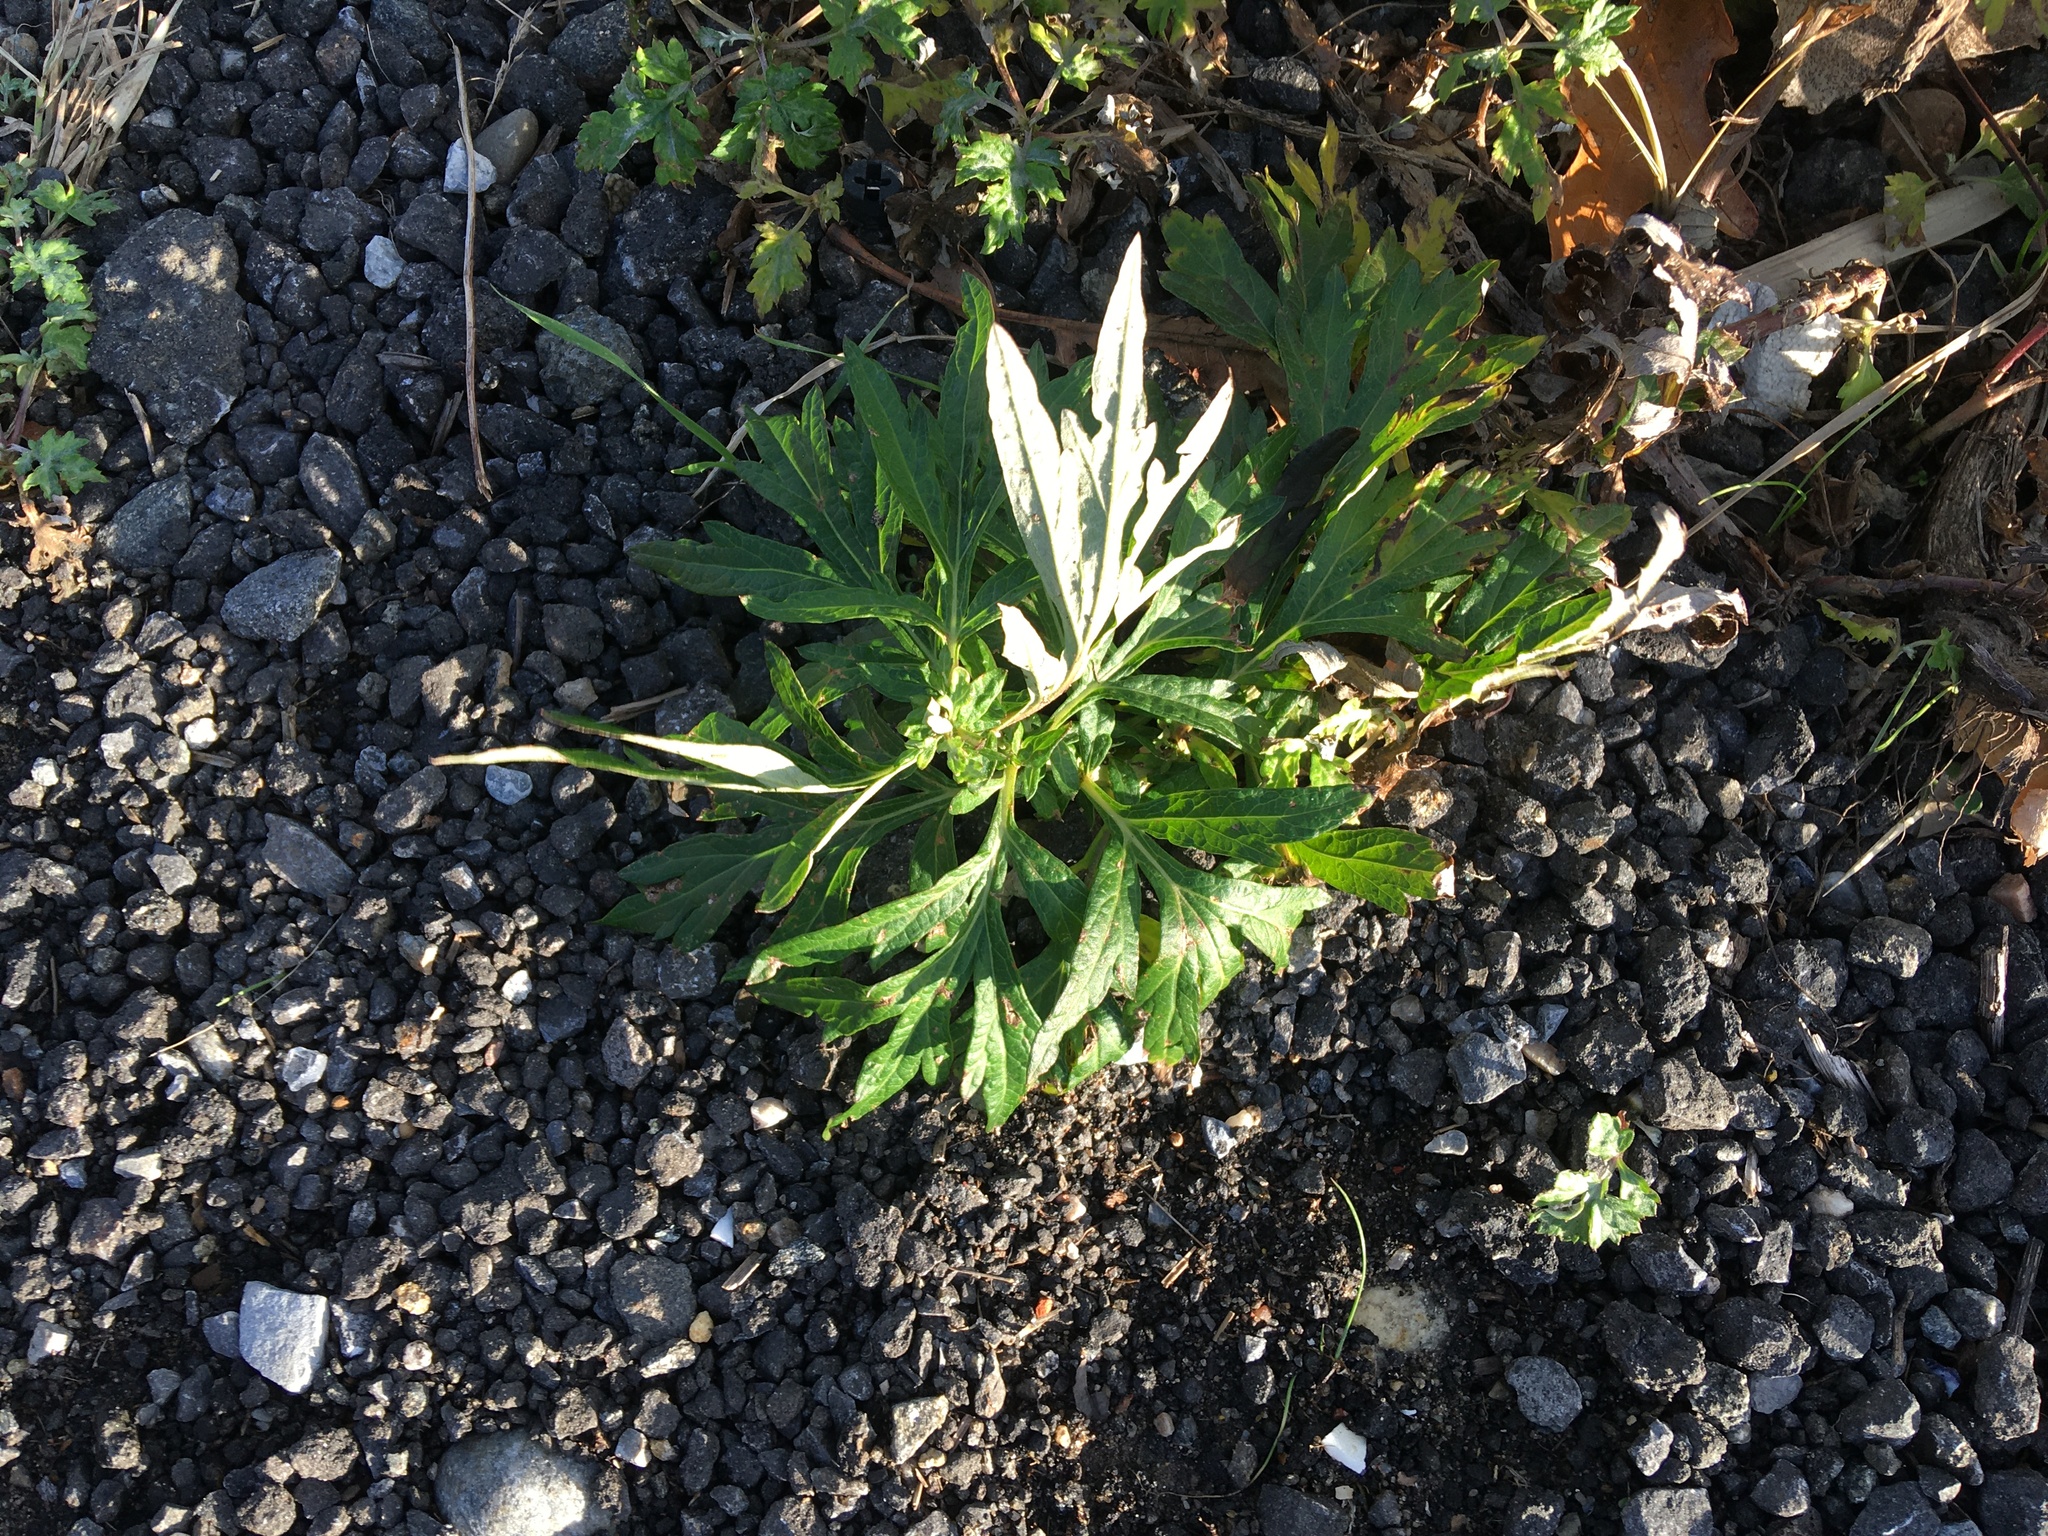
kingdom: Plantae
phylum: Tracheophyta
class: Magnoliopsida
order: Asterales
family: Asteraceae
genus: Artemisia
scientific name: Artemisia vulgaris
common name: Mugwort
